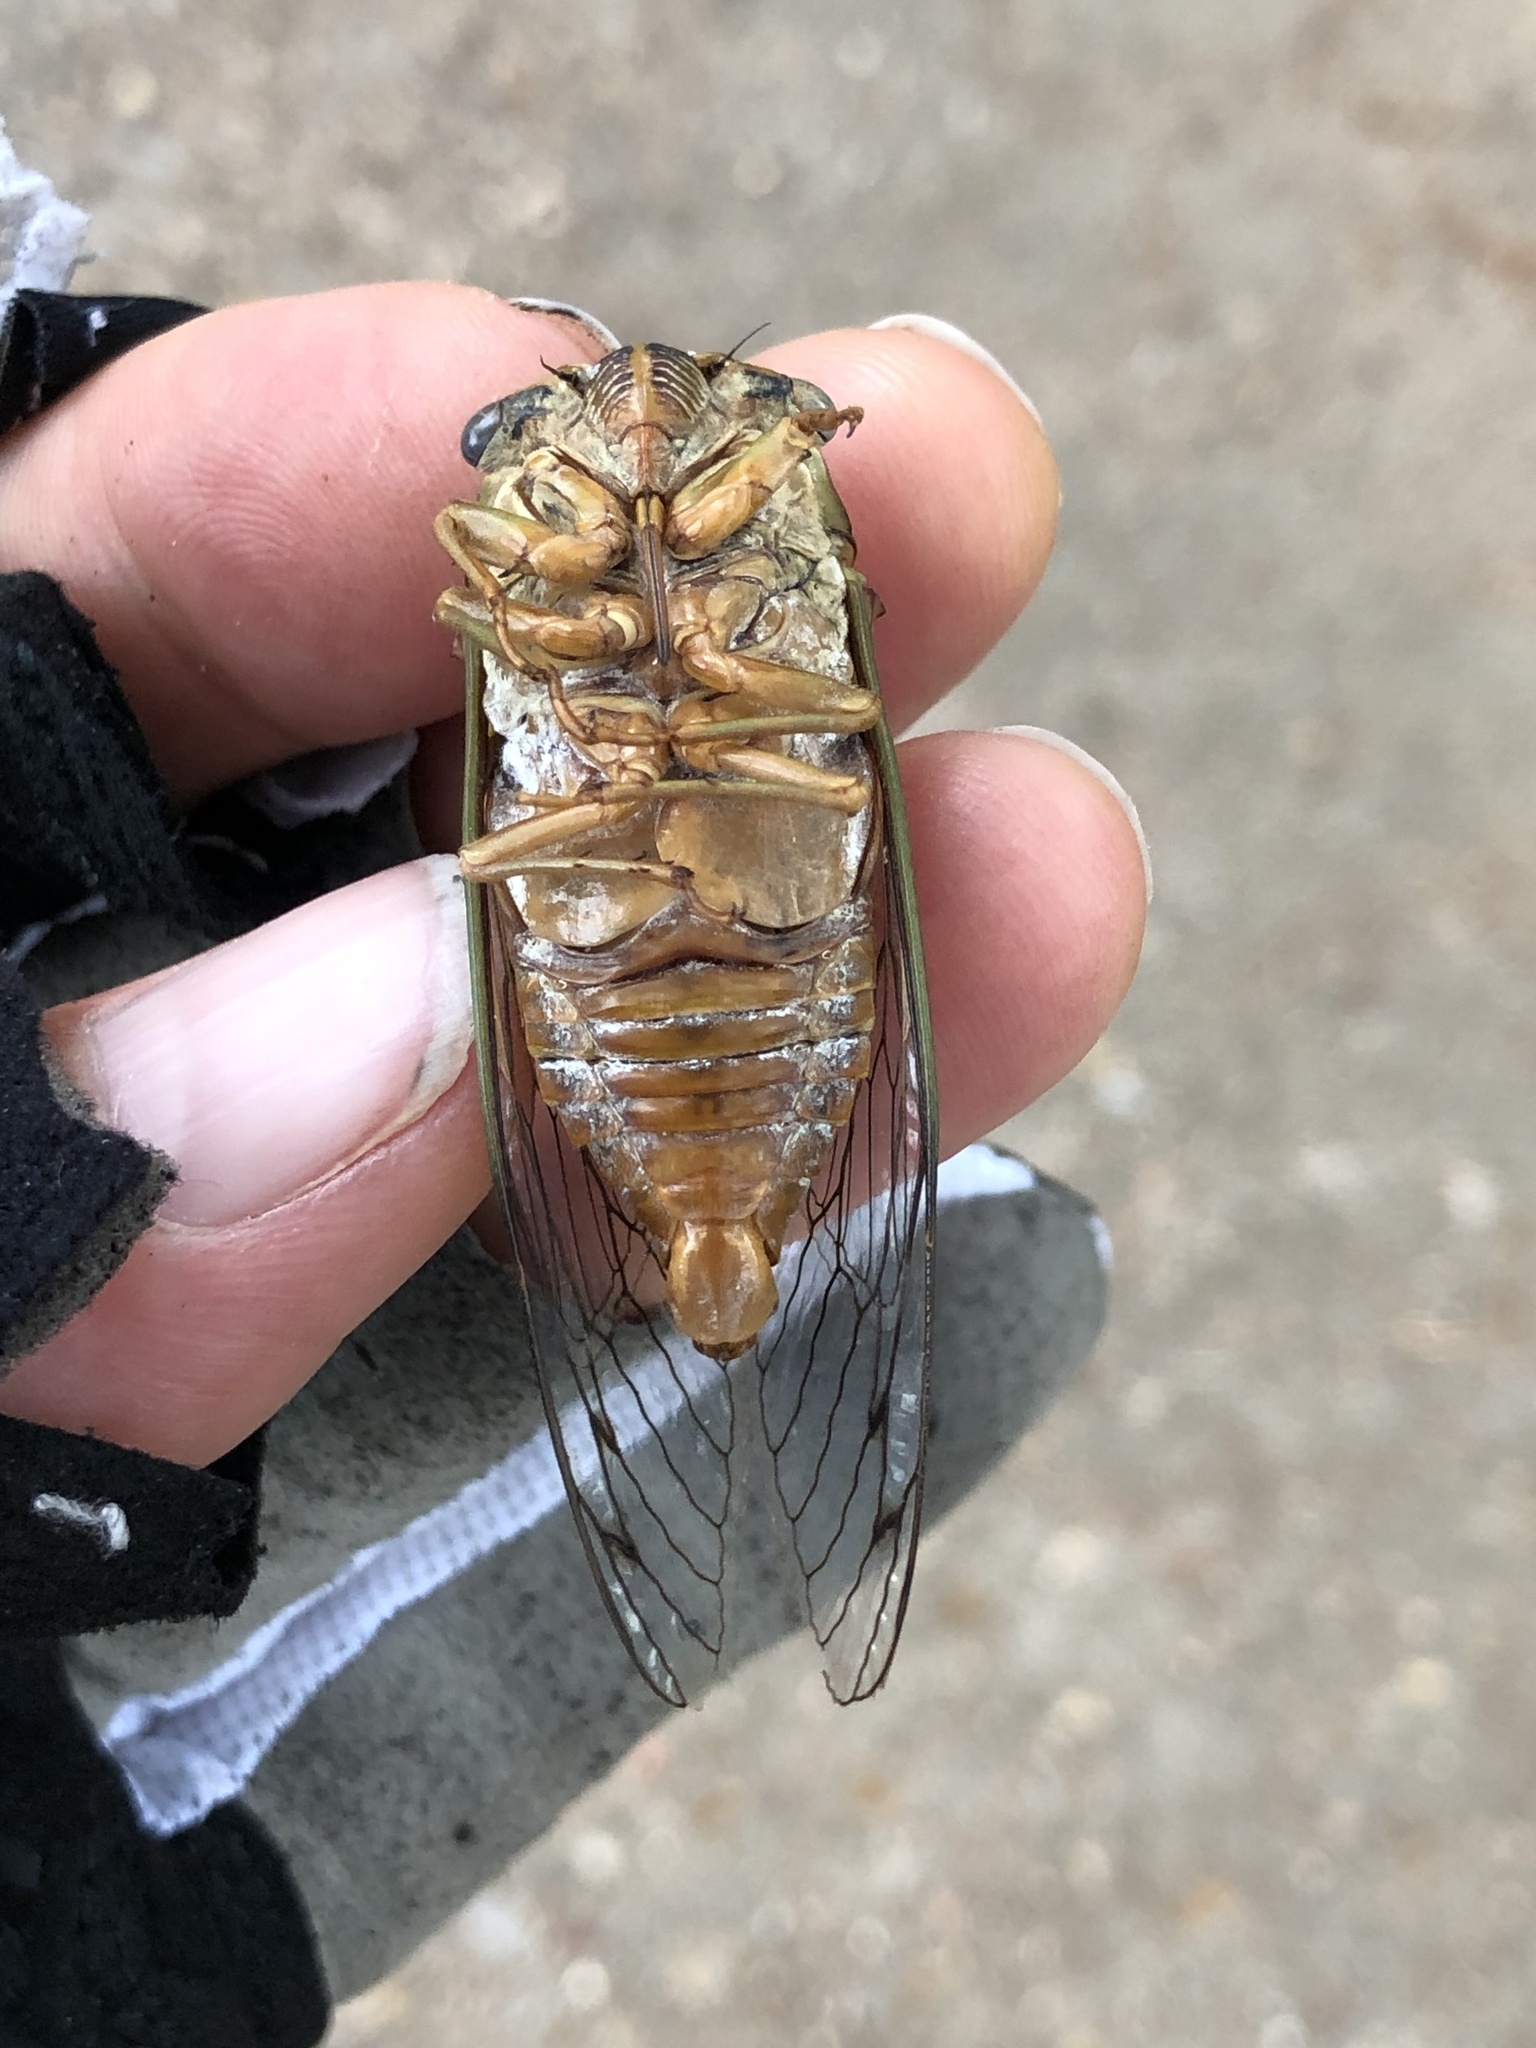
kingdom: Animalia
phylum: Arthropoda
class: Insecta
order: Hemiptera
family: Cicadidae
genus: Megatibicen
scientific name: Megatibicen resh
